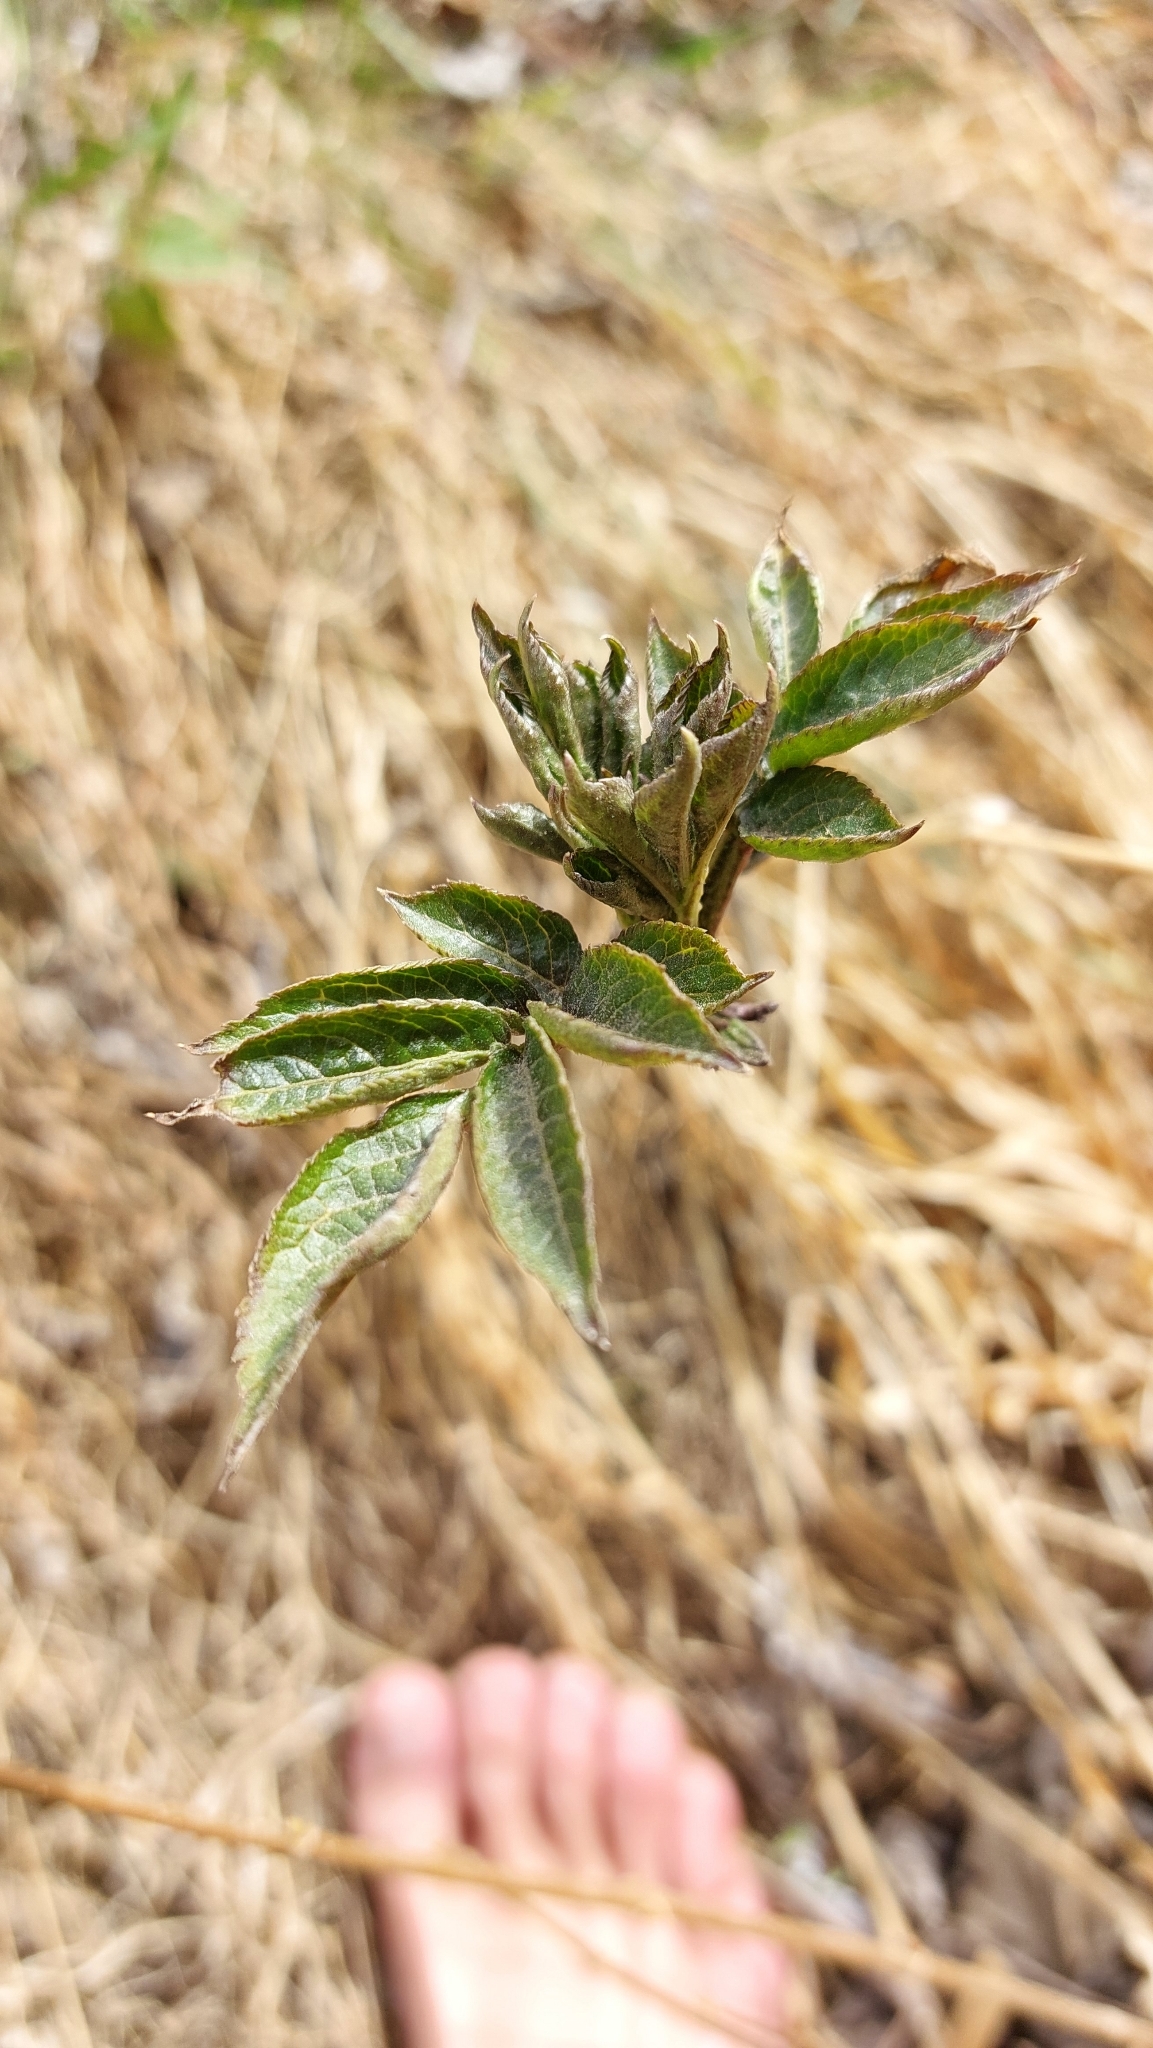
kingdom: Plantae
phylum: Tracheophyta
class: Magnoliopsida
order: Dipsacales
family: Viburnaceae
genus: Sambucus
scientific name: Sambucus nigra
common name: Elder
